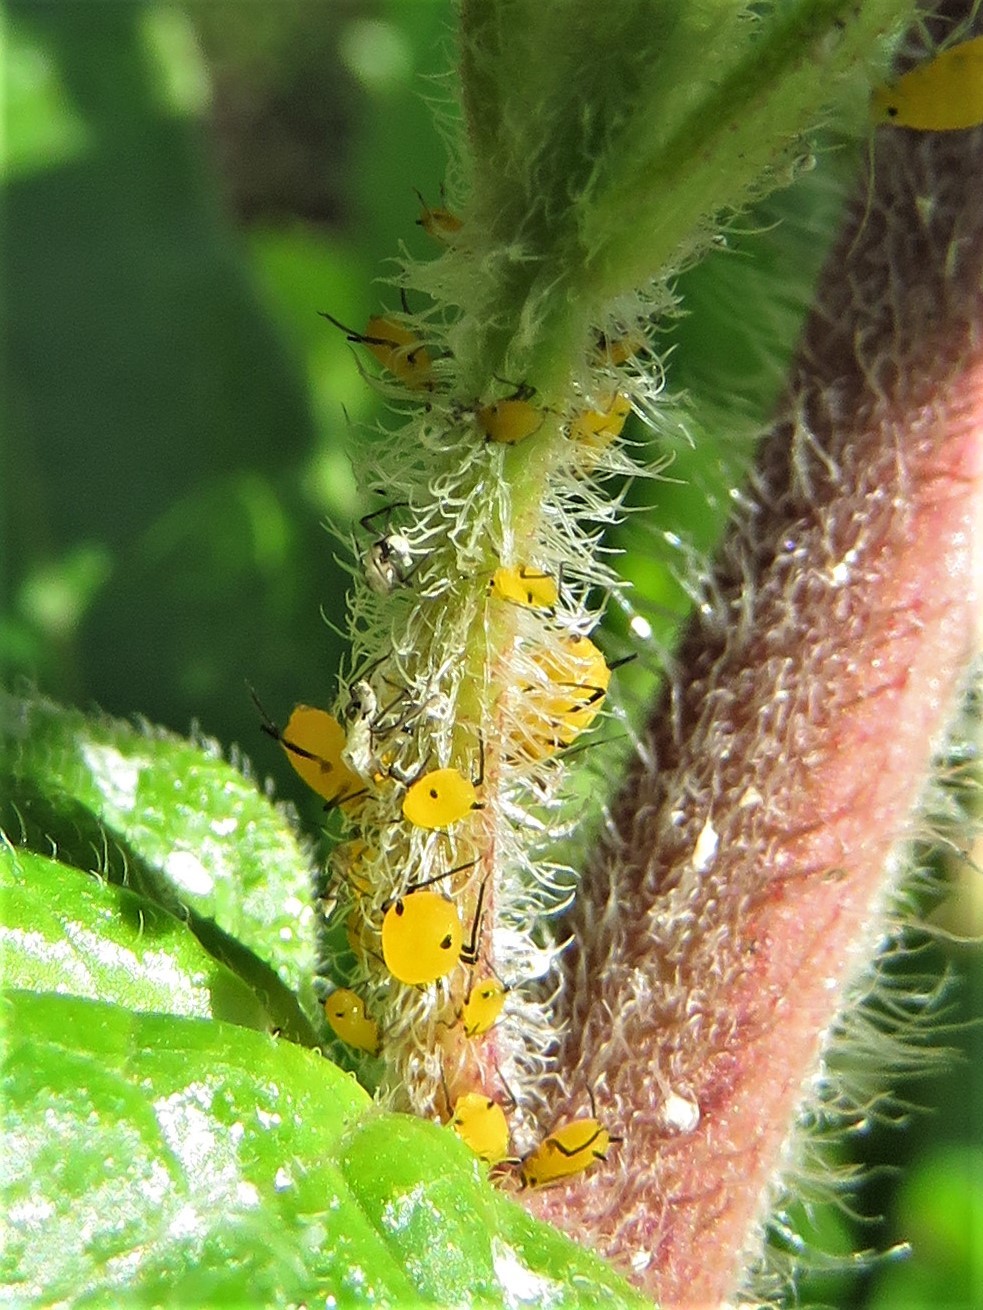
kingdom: Animalia
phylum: Arthropoda
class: Insecta
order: Hemiptera
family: Aphididae
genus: Aphis
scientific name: Aphis nerii
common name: Oleander aphid
